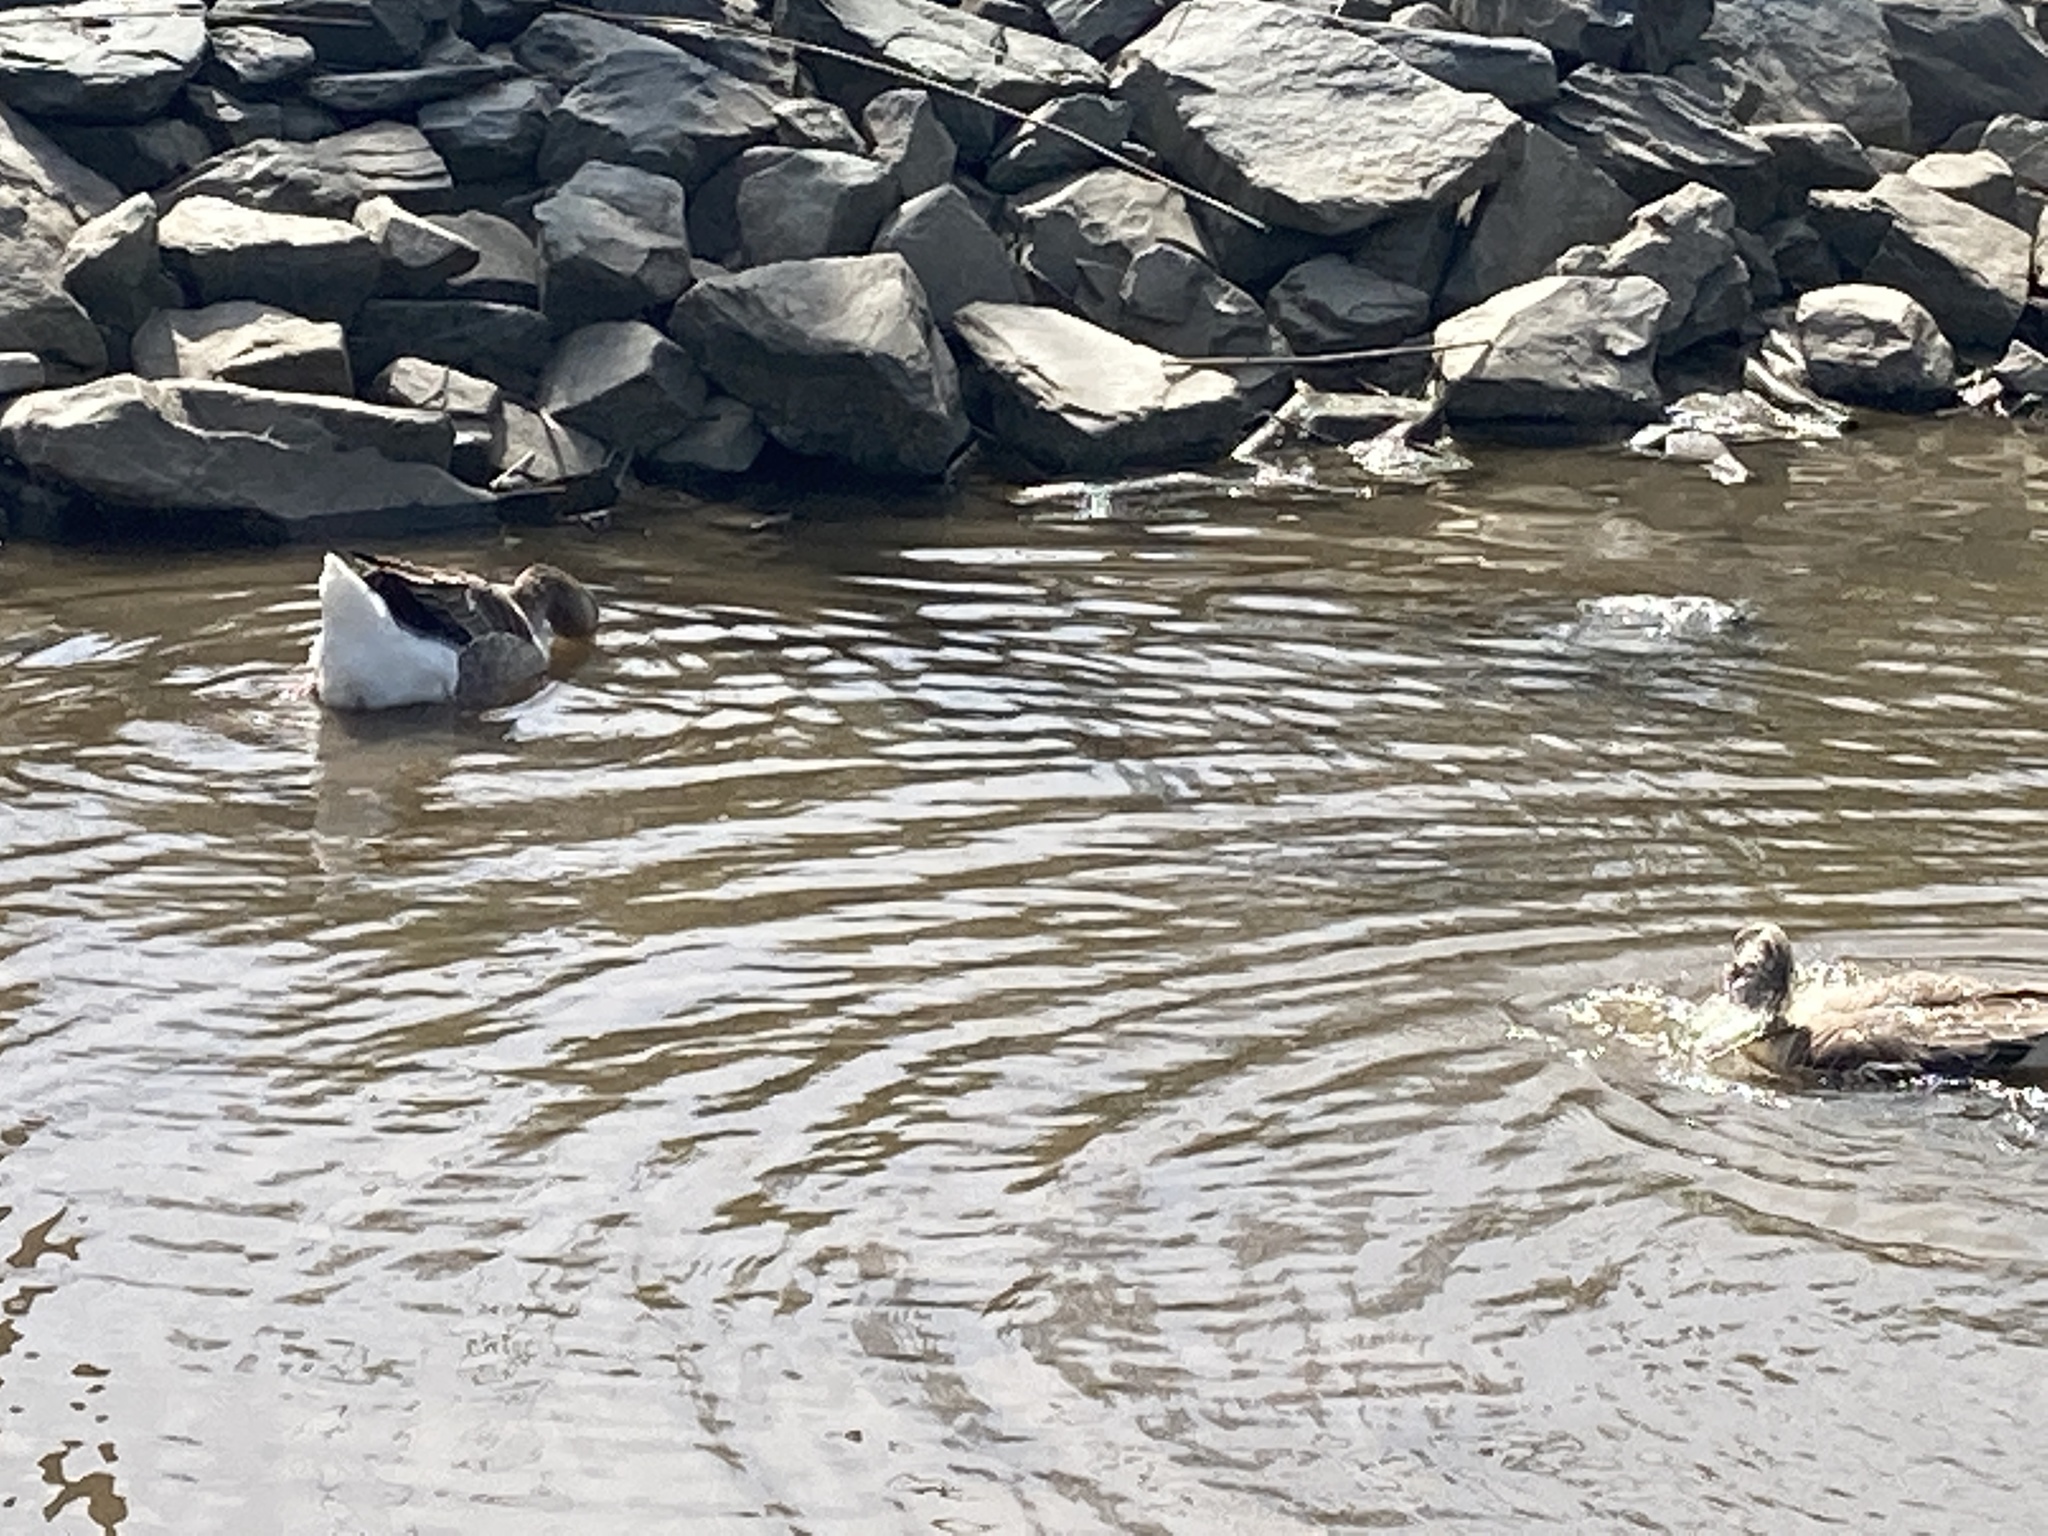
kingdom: Animalia
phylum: Chordata
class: Aves
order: Anseriformes
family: Anatidae
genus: Anser
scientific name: Anser anser
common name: Greylag goose
